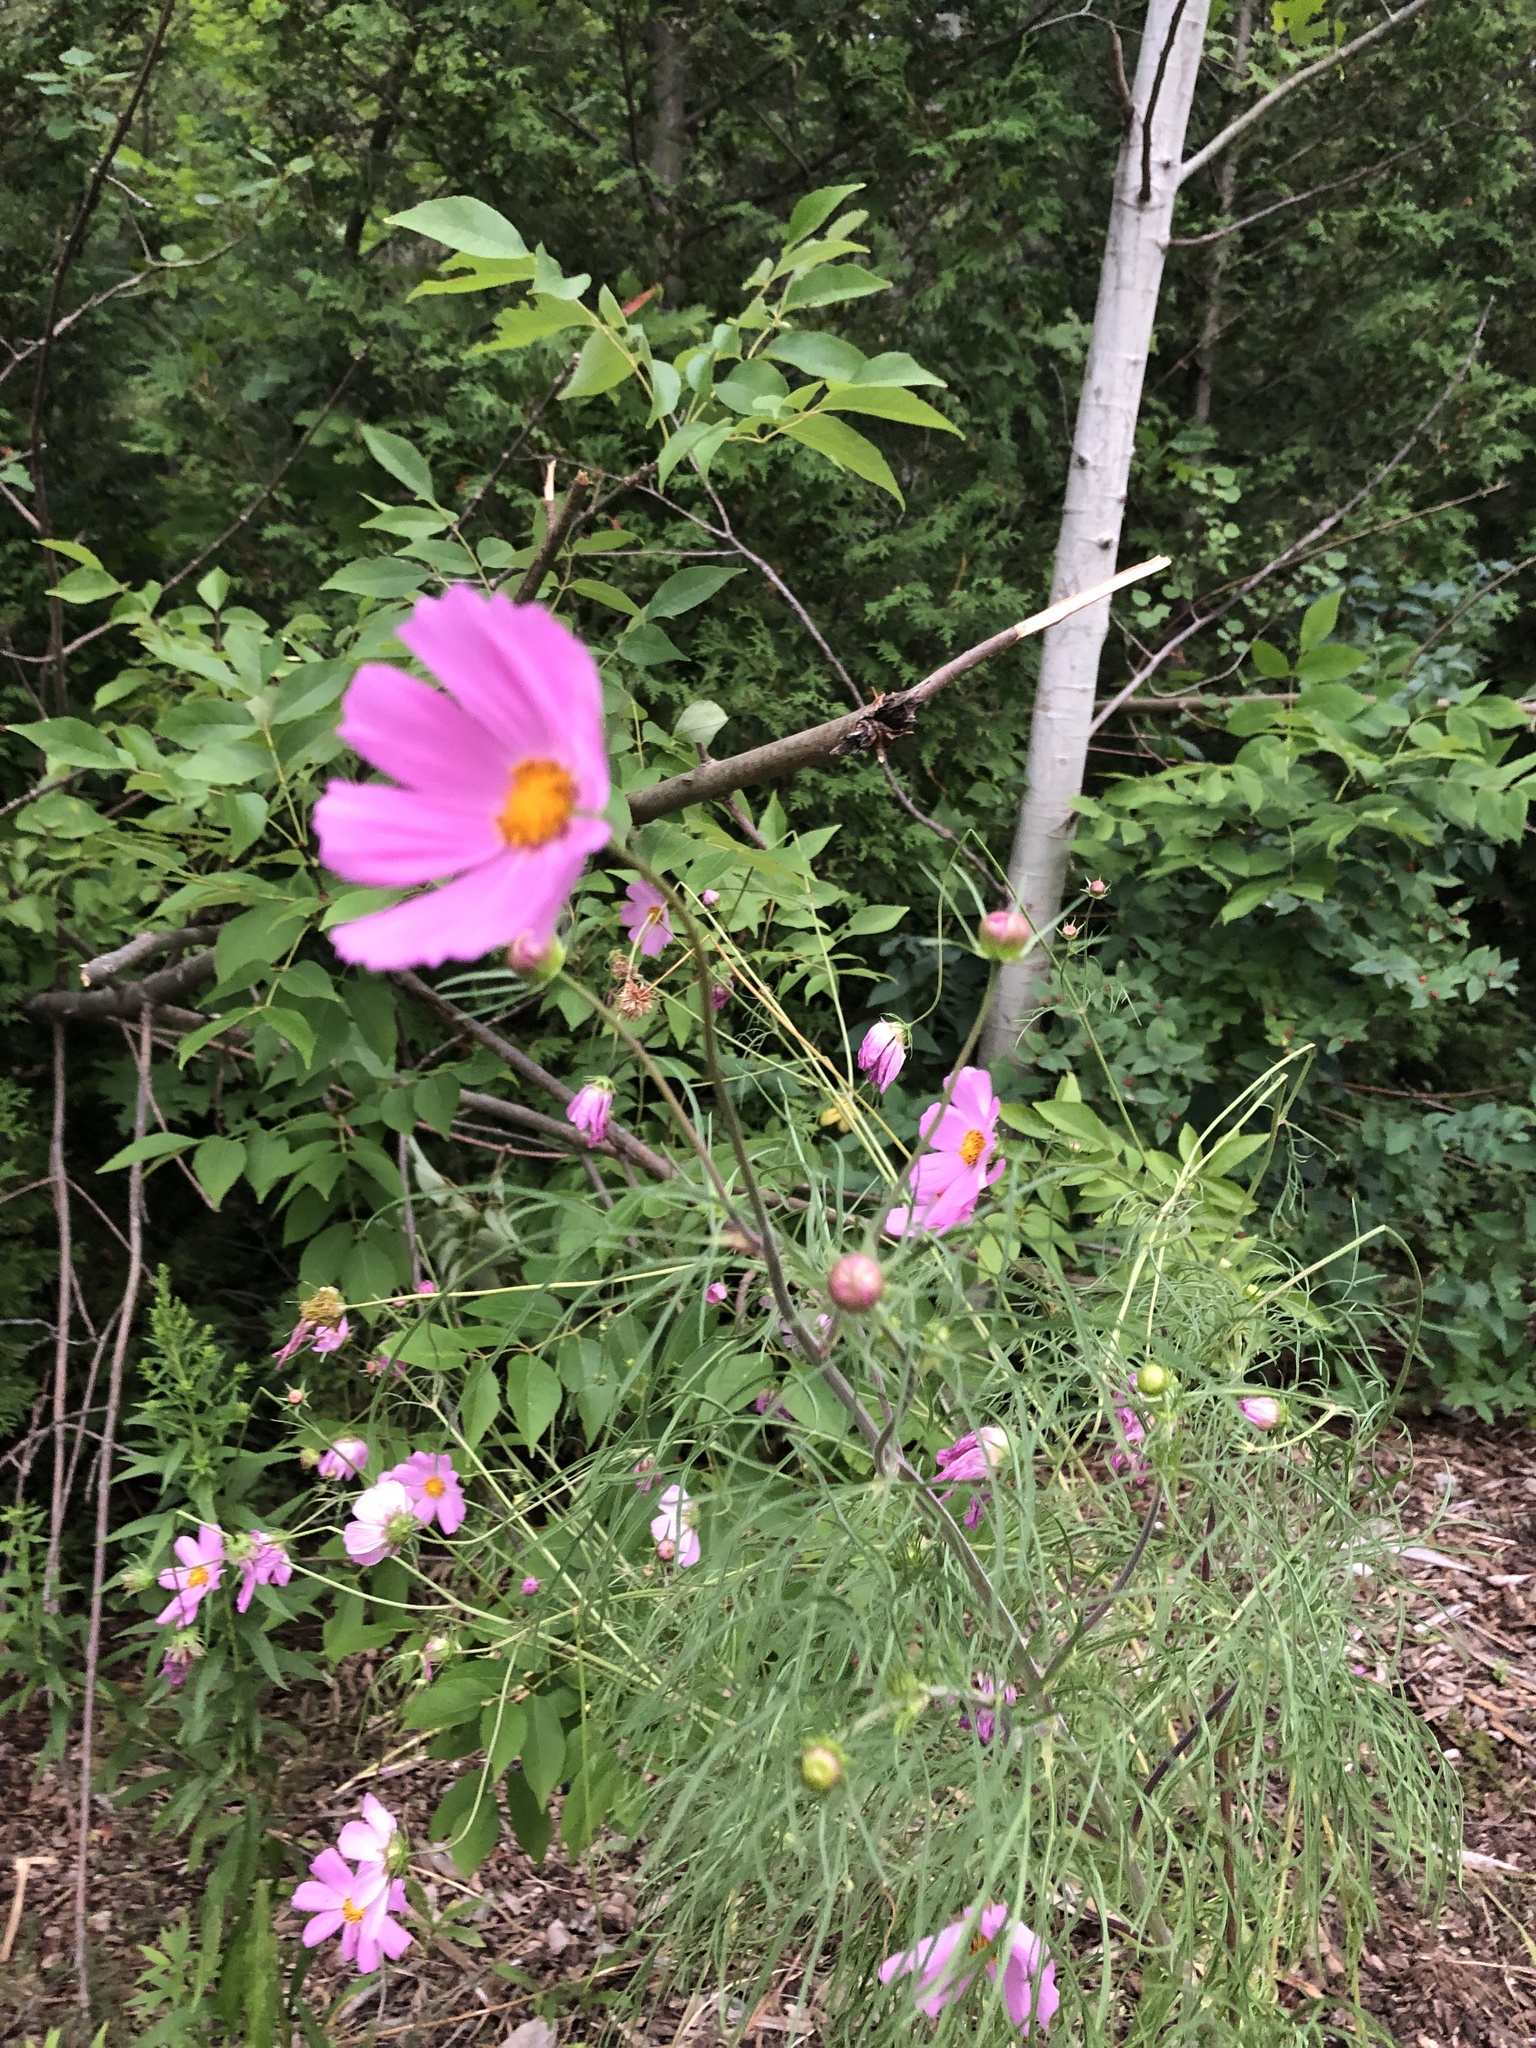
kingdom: Plantae
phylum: Tracheophyta
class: Magnoliopsida
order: Asterales
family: Asteraceae
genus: Cosmos
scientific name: Cosmos bipinnatus
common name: Garden cosmos
